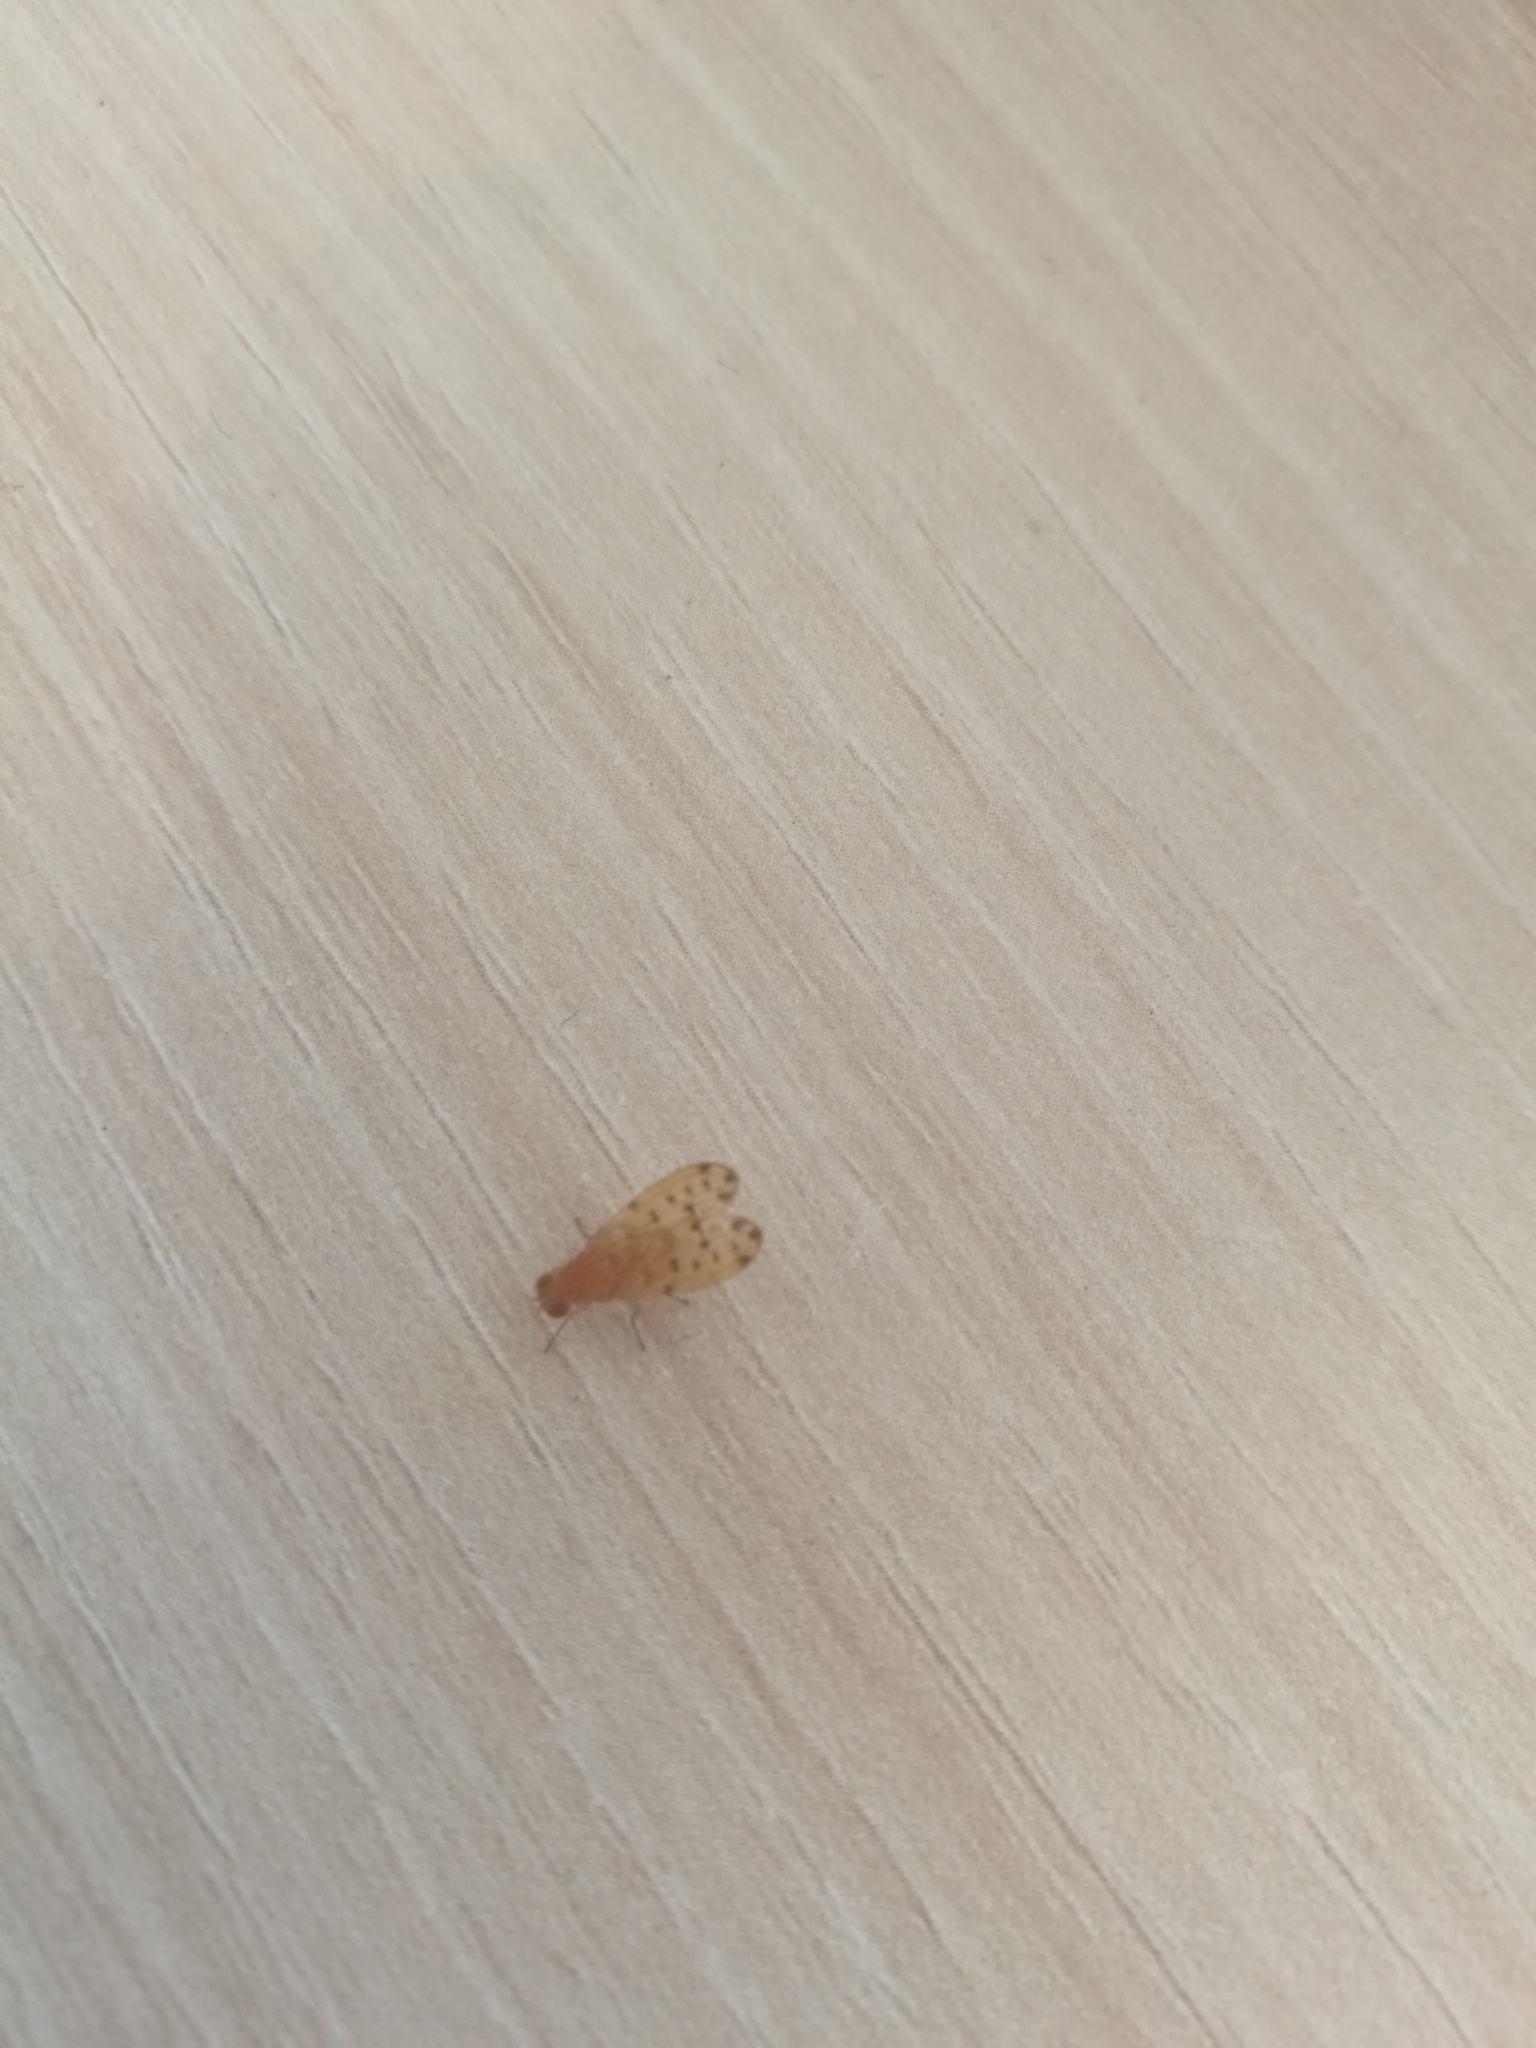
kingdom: Animalia
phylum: Arthropoda
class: Insecta
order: Diptera
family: Lauxaniidae
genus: Eusapromyza
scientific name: Eusapromyza multipunctata
